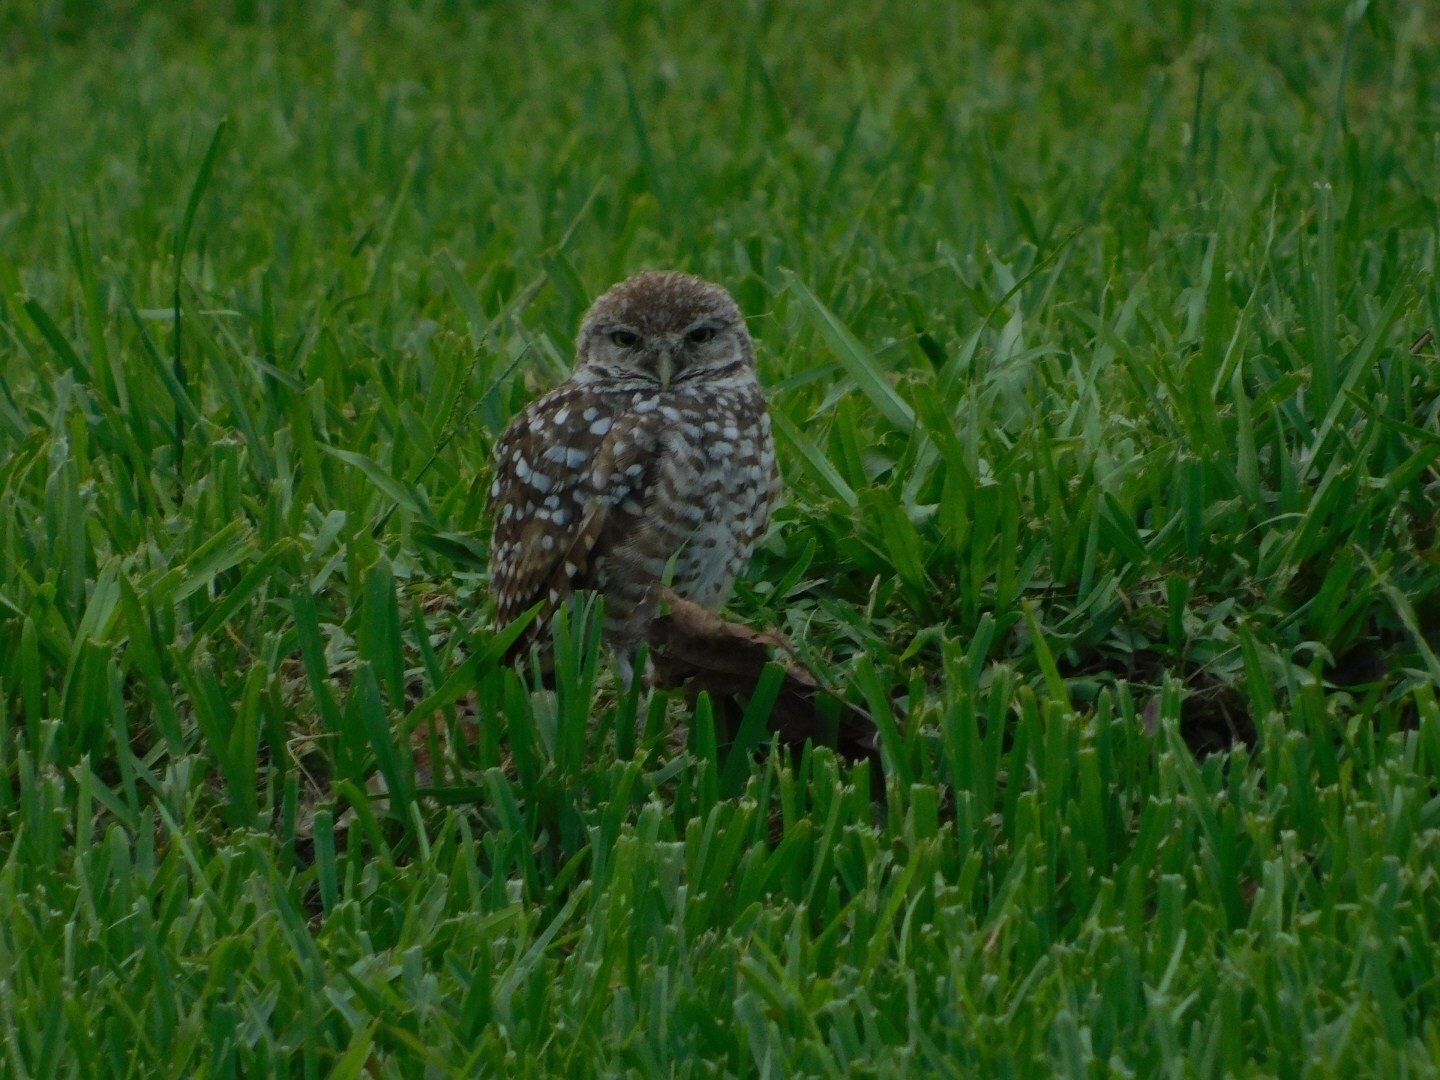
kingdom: Animalia
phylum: Chordata
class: Aves
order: Strigiformes
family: Strigidae
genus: Athene
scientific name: Athene cunicularia
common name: Burrowing owl
